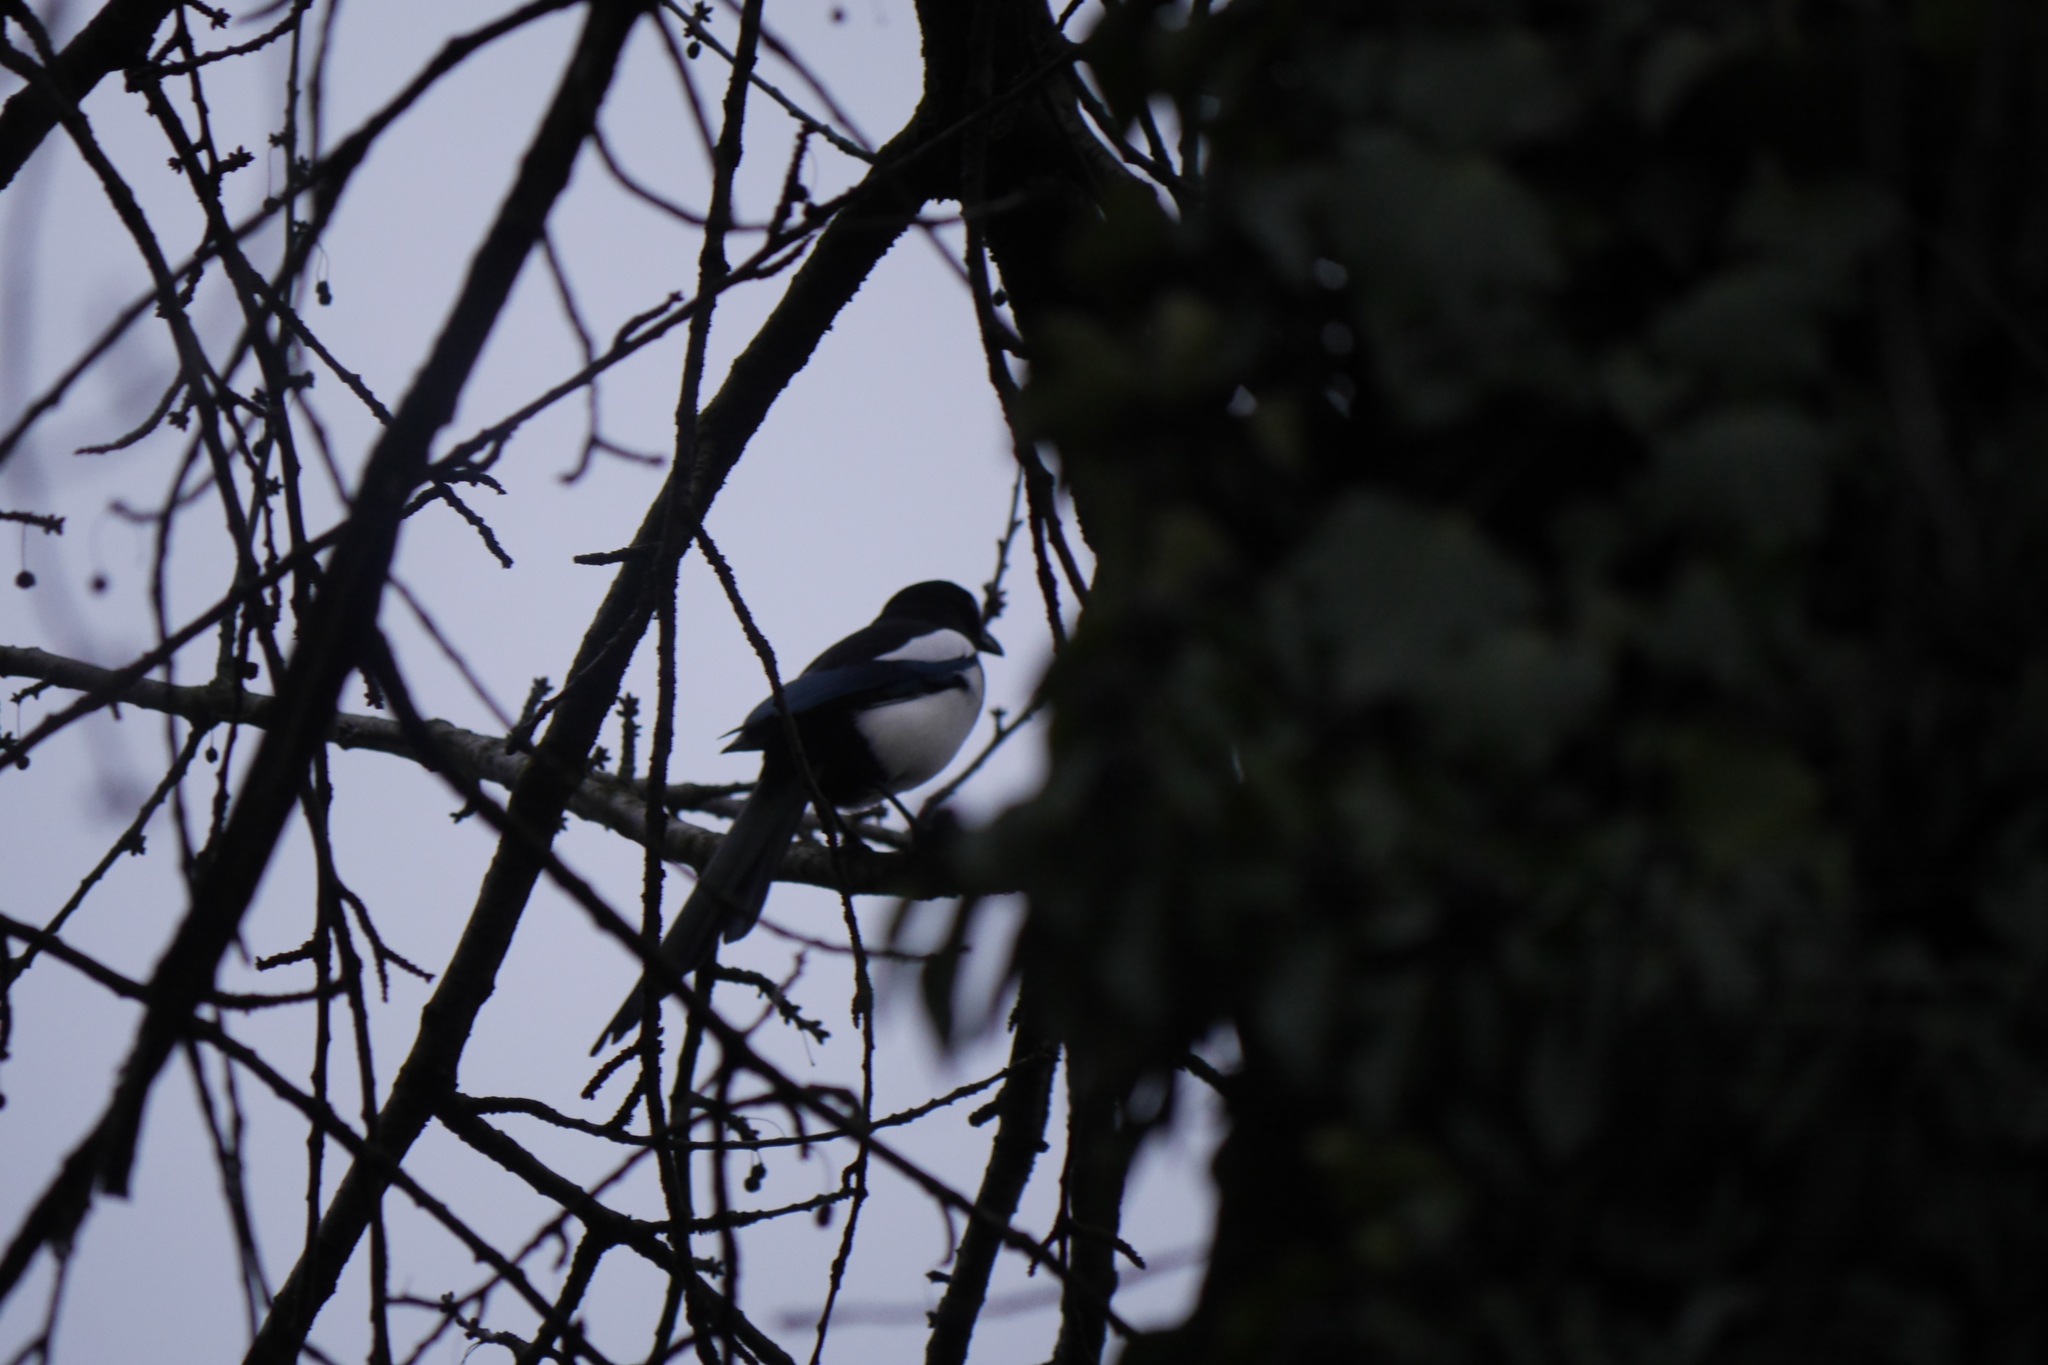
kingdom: Animalia
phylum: Chordata
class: Aves
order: Passeriformes
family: Corvidae
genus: Pica
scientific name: Pica pica
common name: Eurasian magpie
